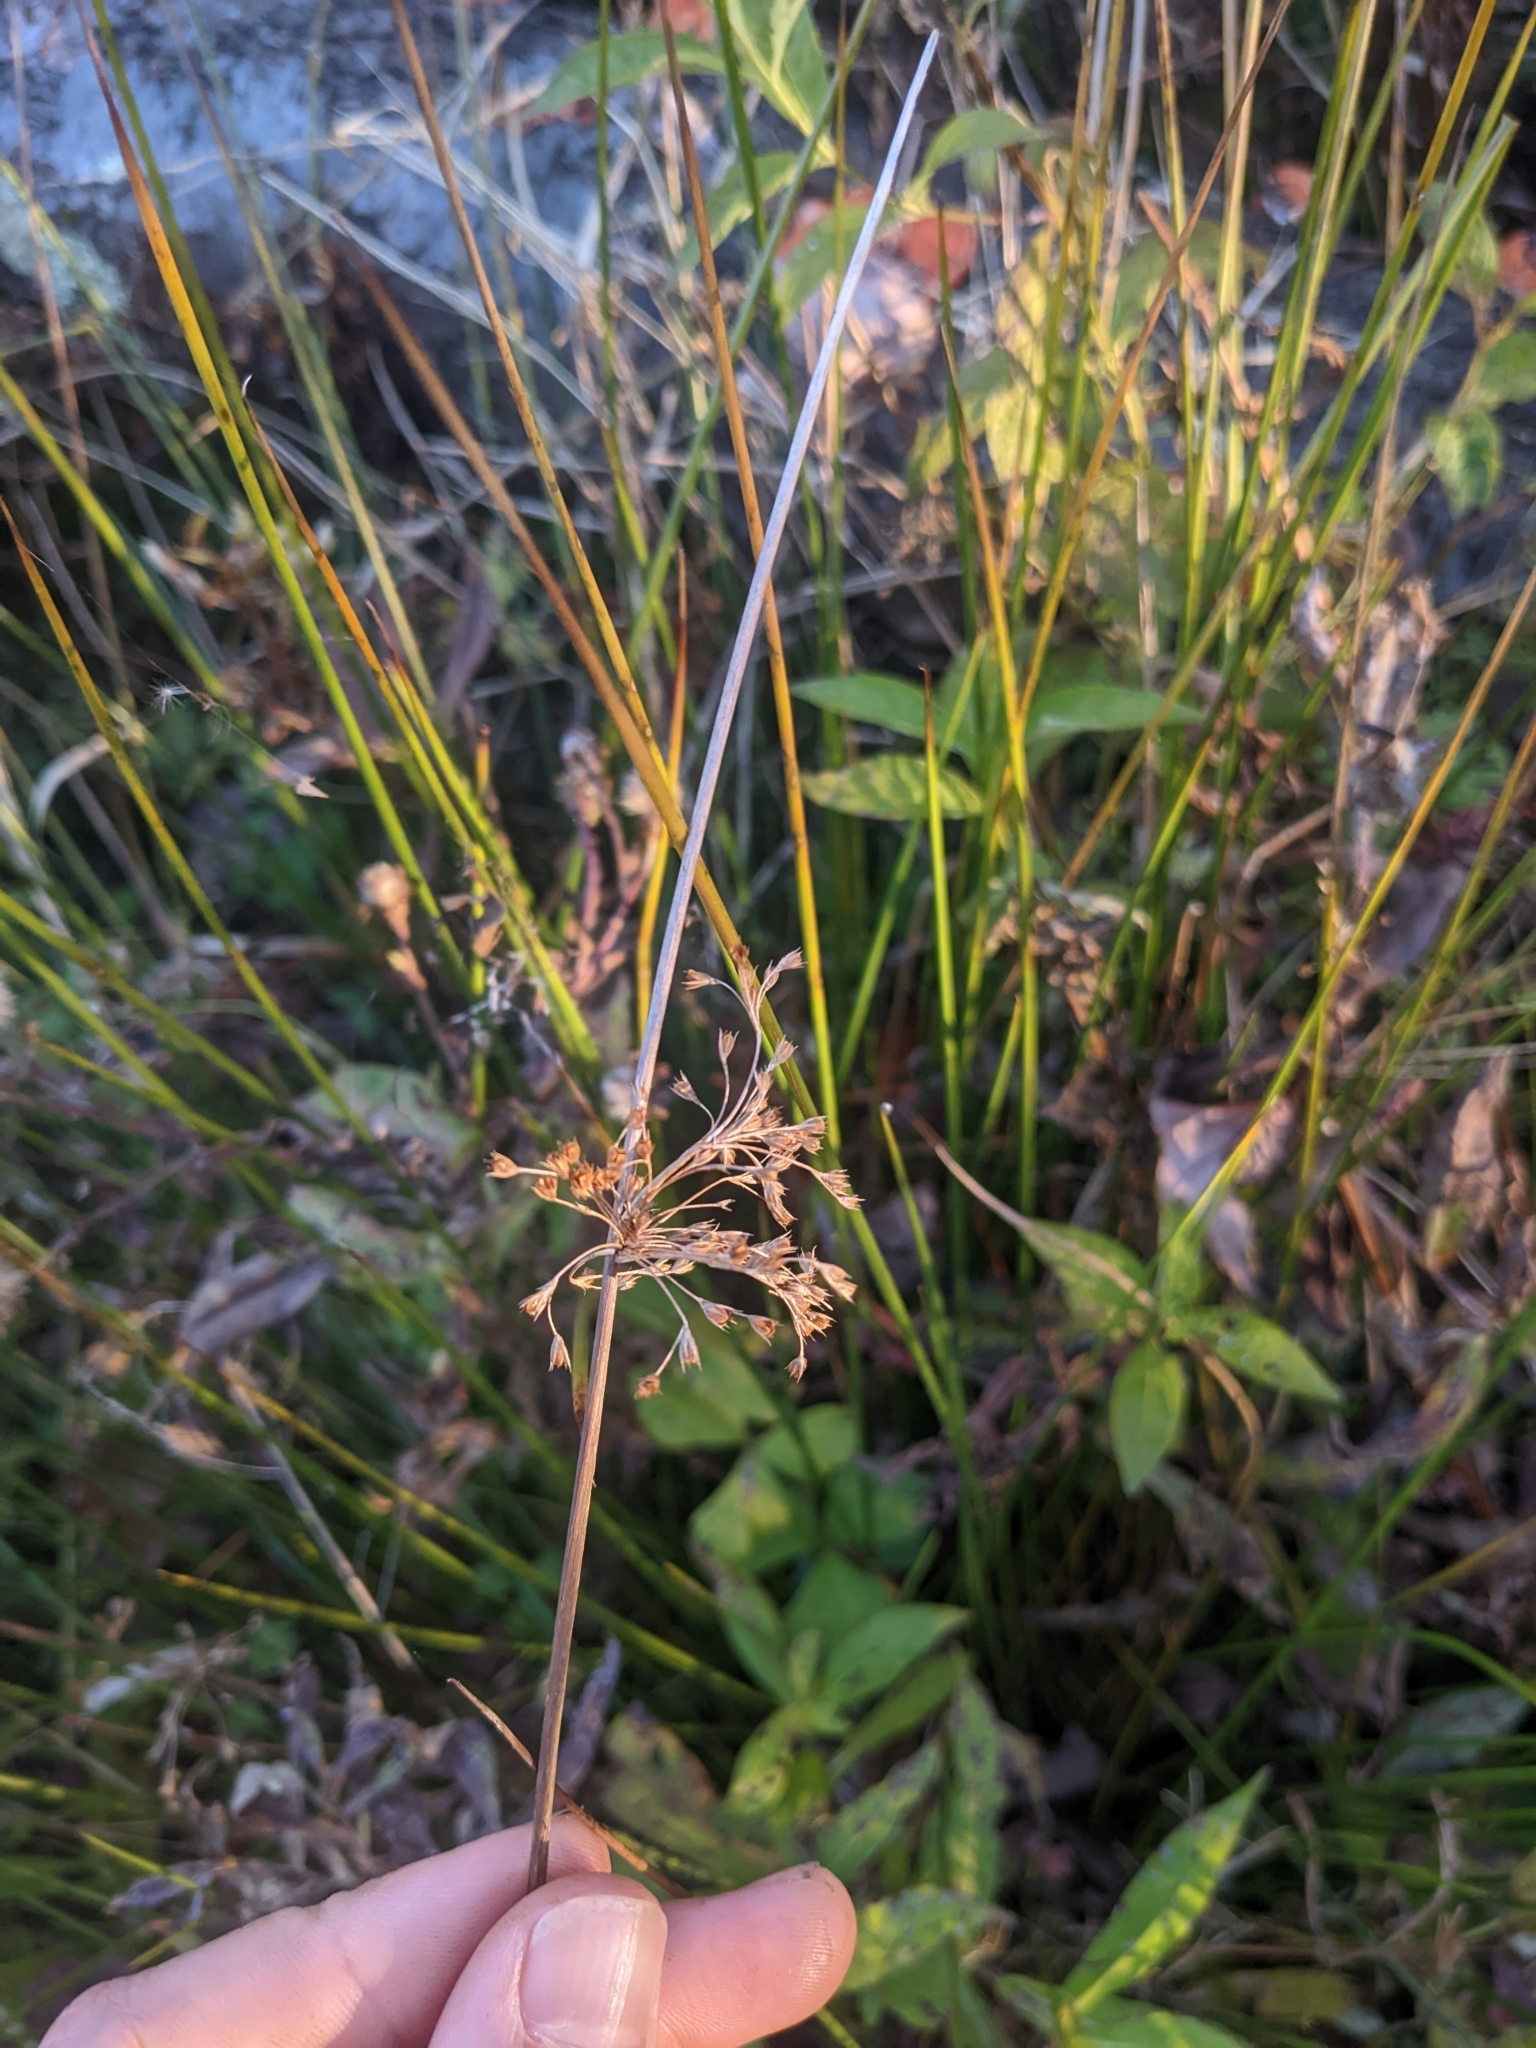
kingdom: Plantae
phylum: Tracheophyta
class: Liliopsida
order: Poales
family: Juncaceae
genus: Juncus
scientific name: Juncus effusus
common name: Soft rush
